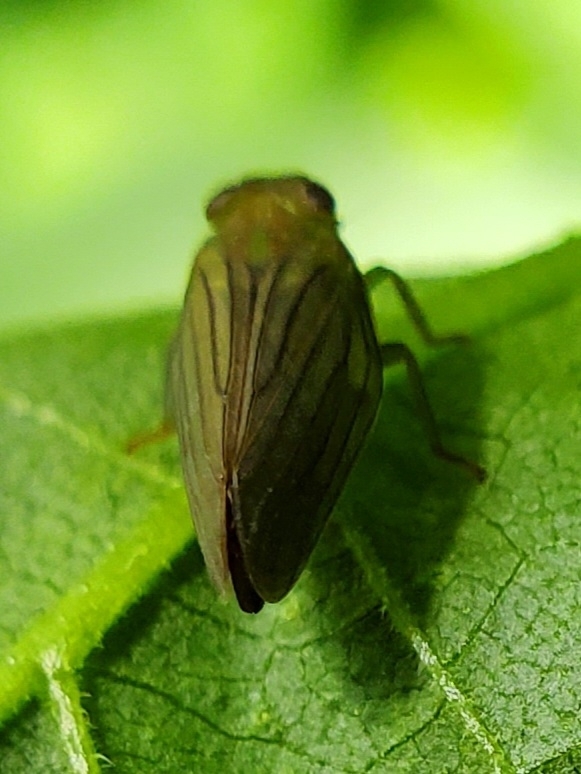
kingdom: Animalia
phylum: Arthropoda
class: Insecta
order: Hemiptera
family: Issidae
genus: Aplos
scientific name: Aplos simplex
